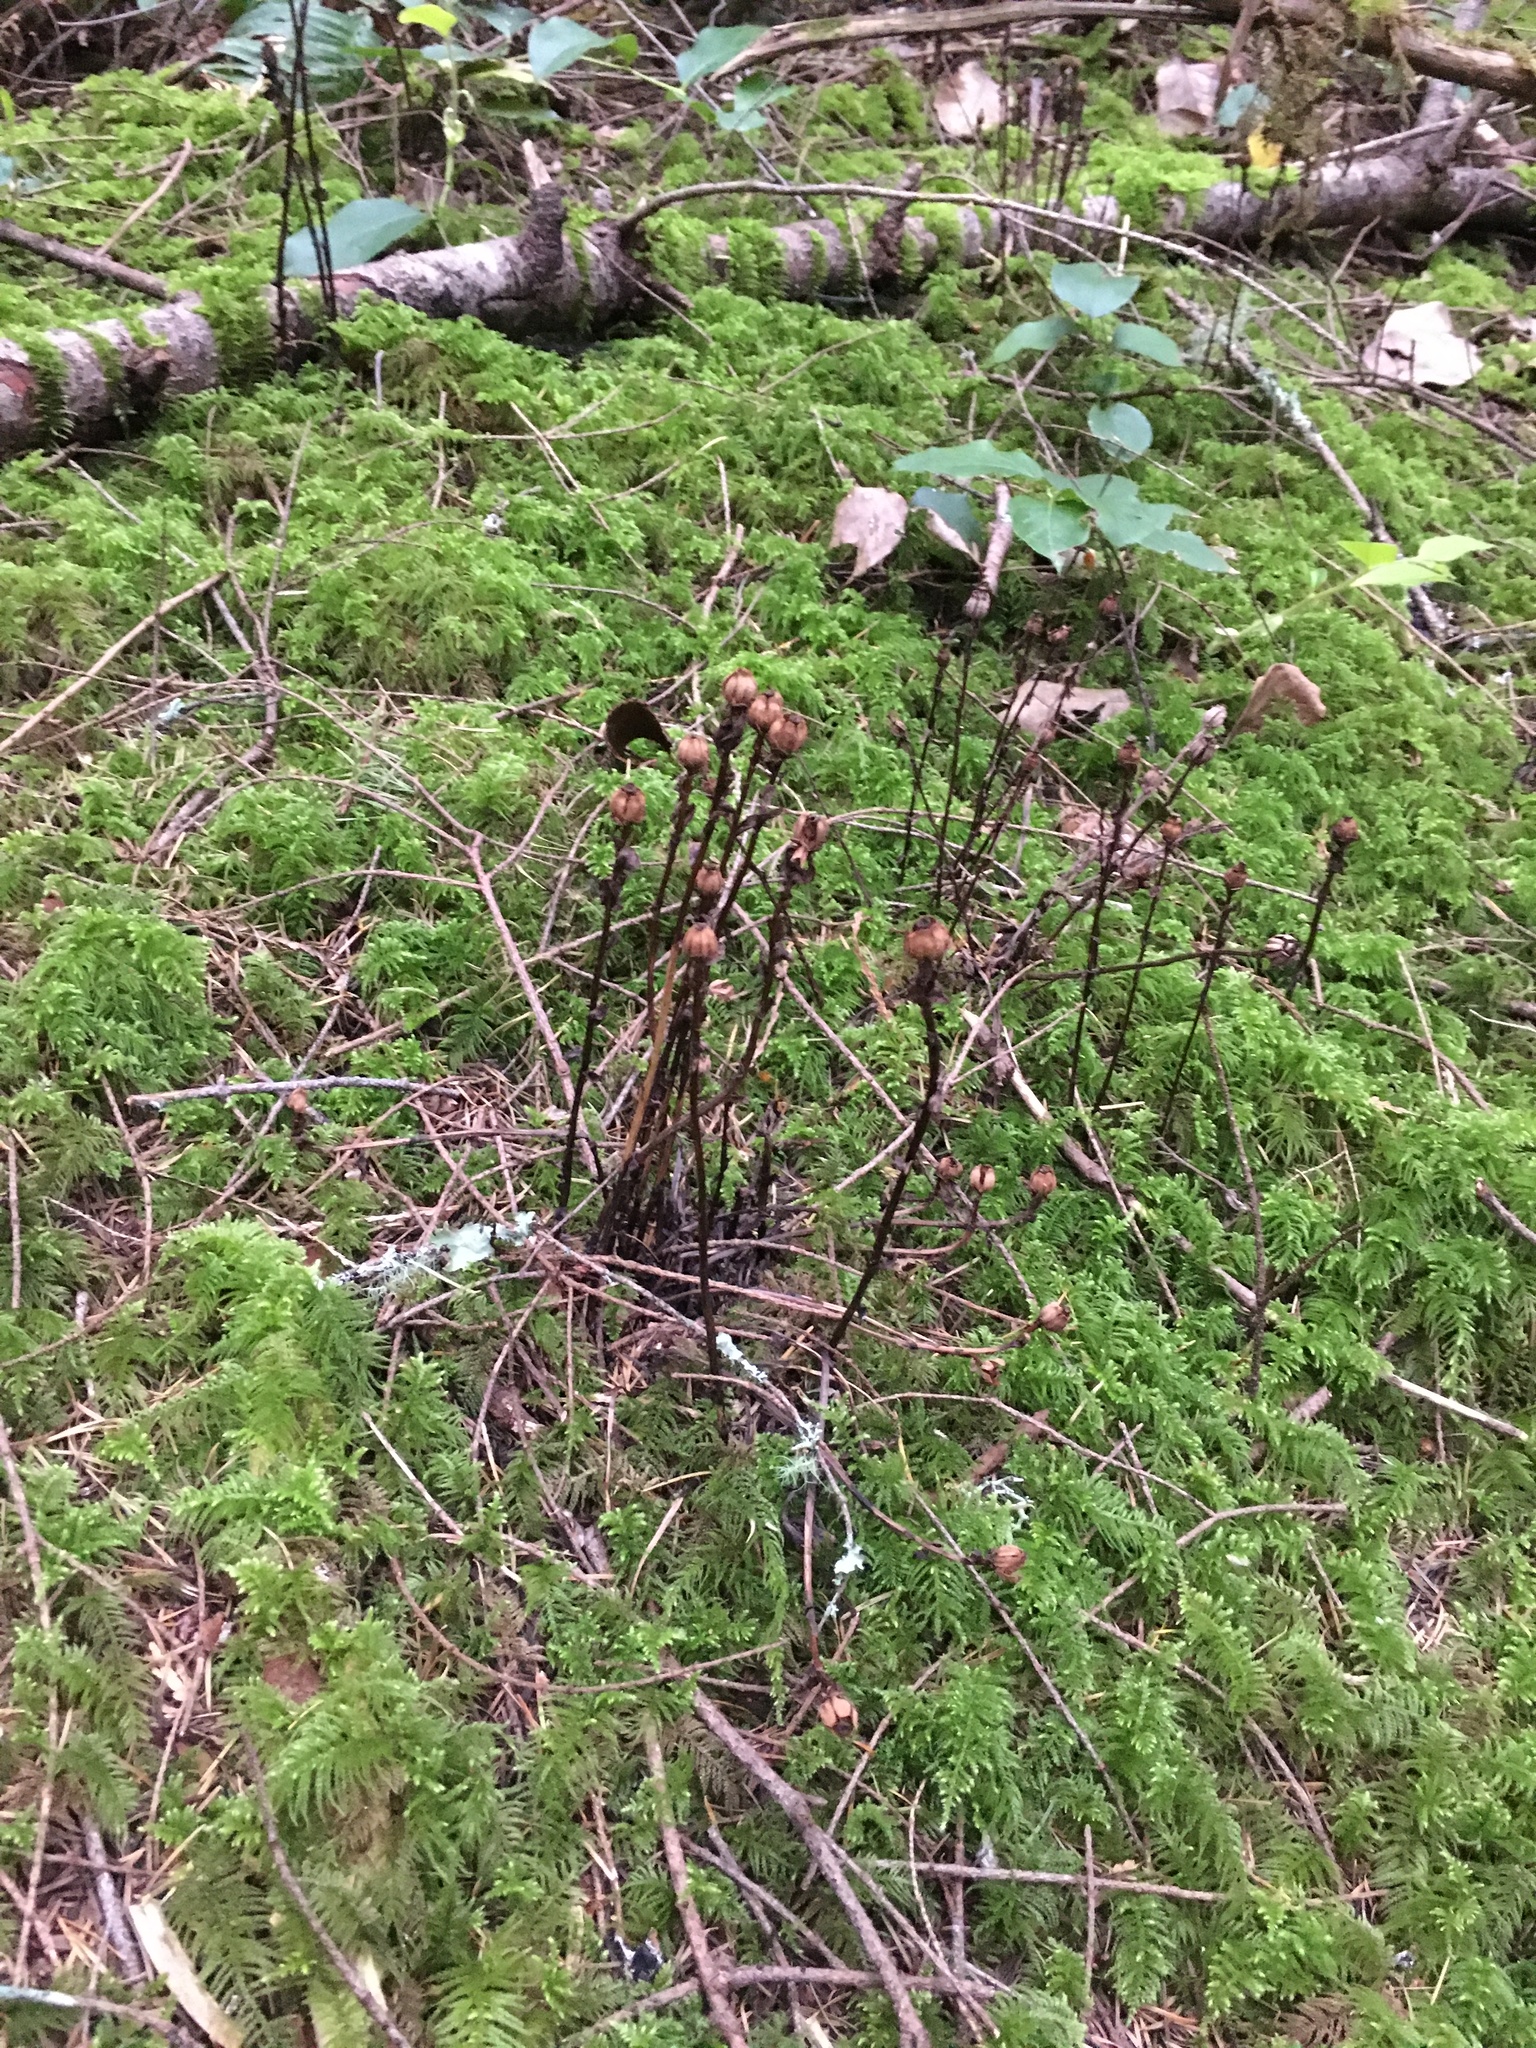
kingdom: Plantae
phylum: Tracheophyta
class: Magnoliopsida
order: Ericales
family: Ericaceae
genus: Monotropa
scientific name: Monotropa uniflora
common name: Convulsion root
